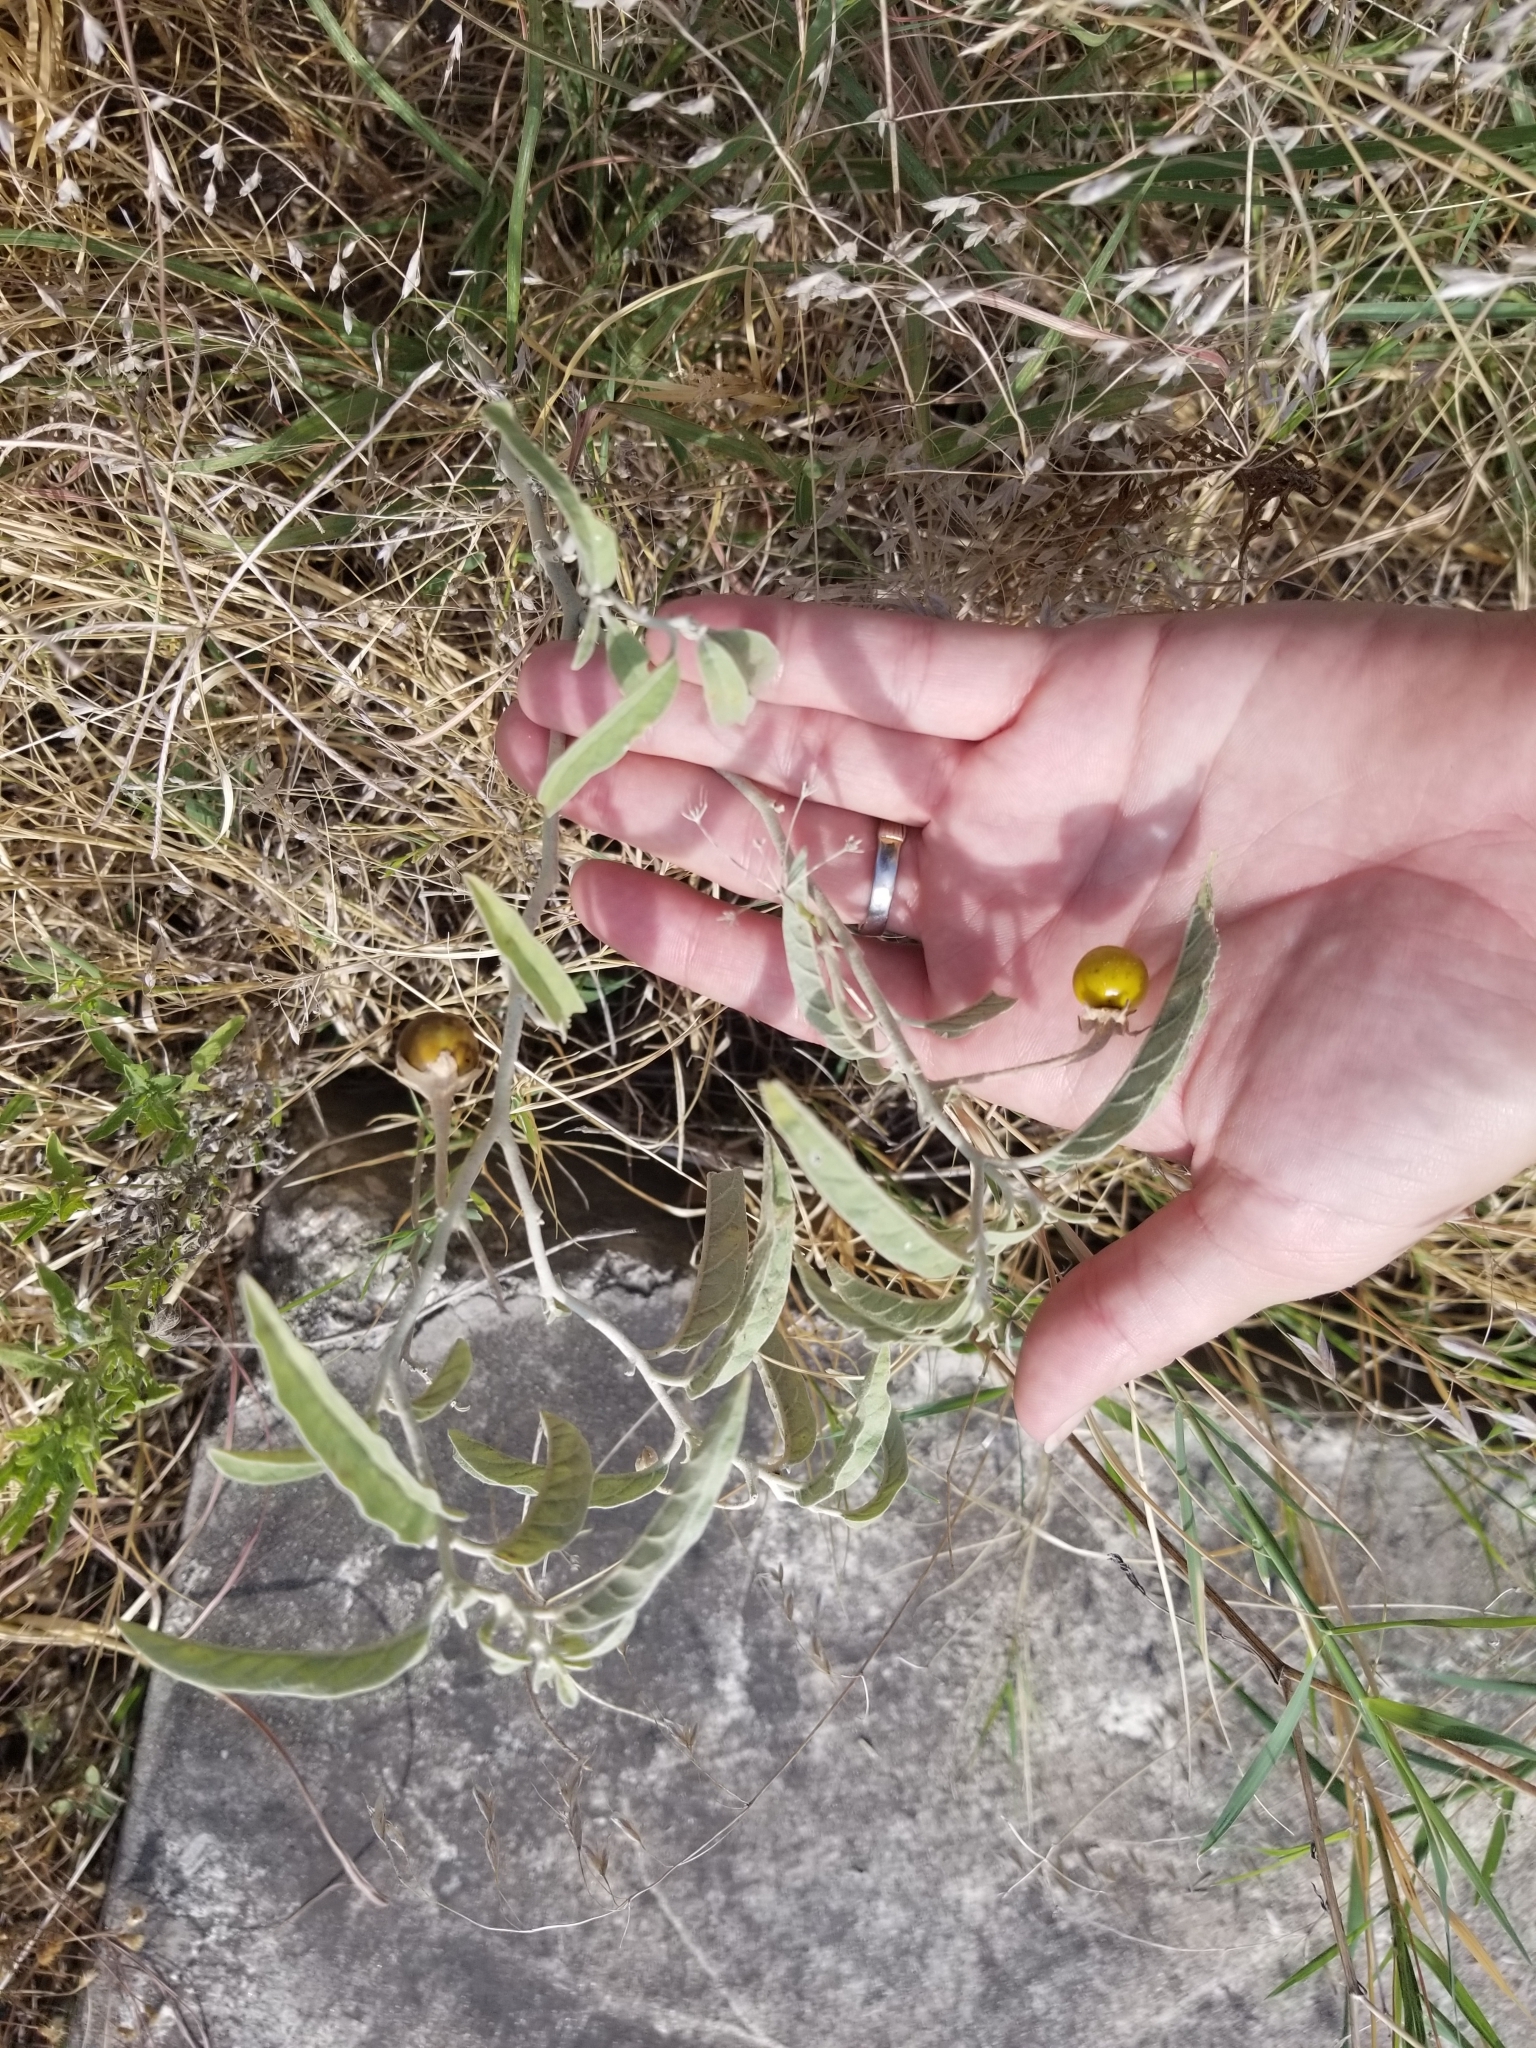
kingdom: Plantae
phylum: Tracheophyta
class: Magnoliopsida
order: Solanales
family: Solanaceae
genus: Solanum
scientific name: Solanum elaeagnifolium
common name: Silverleaf nightshade
